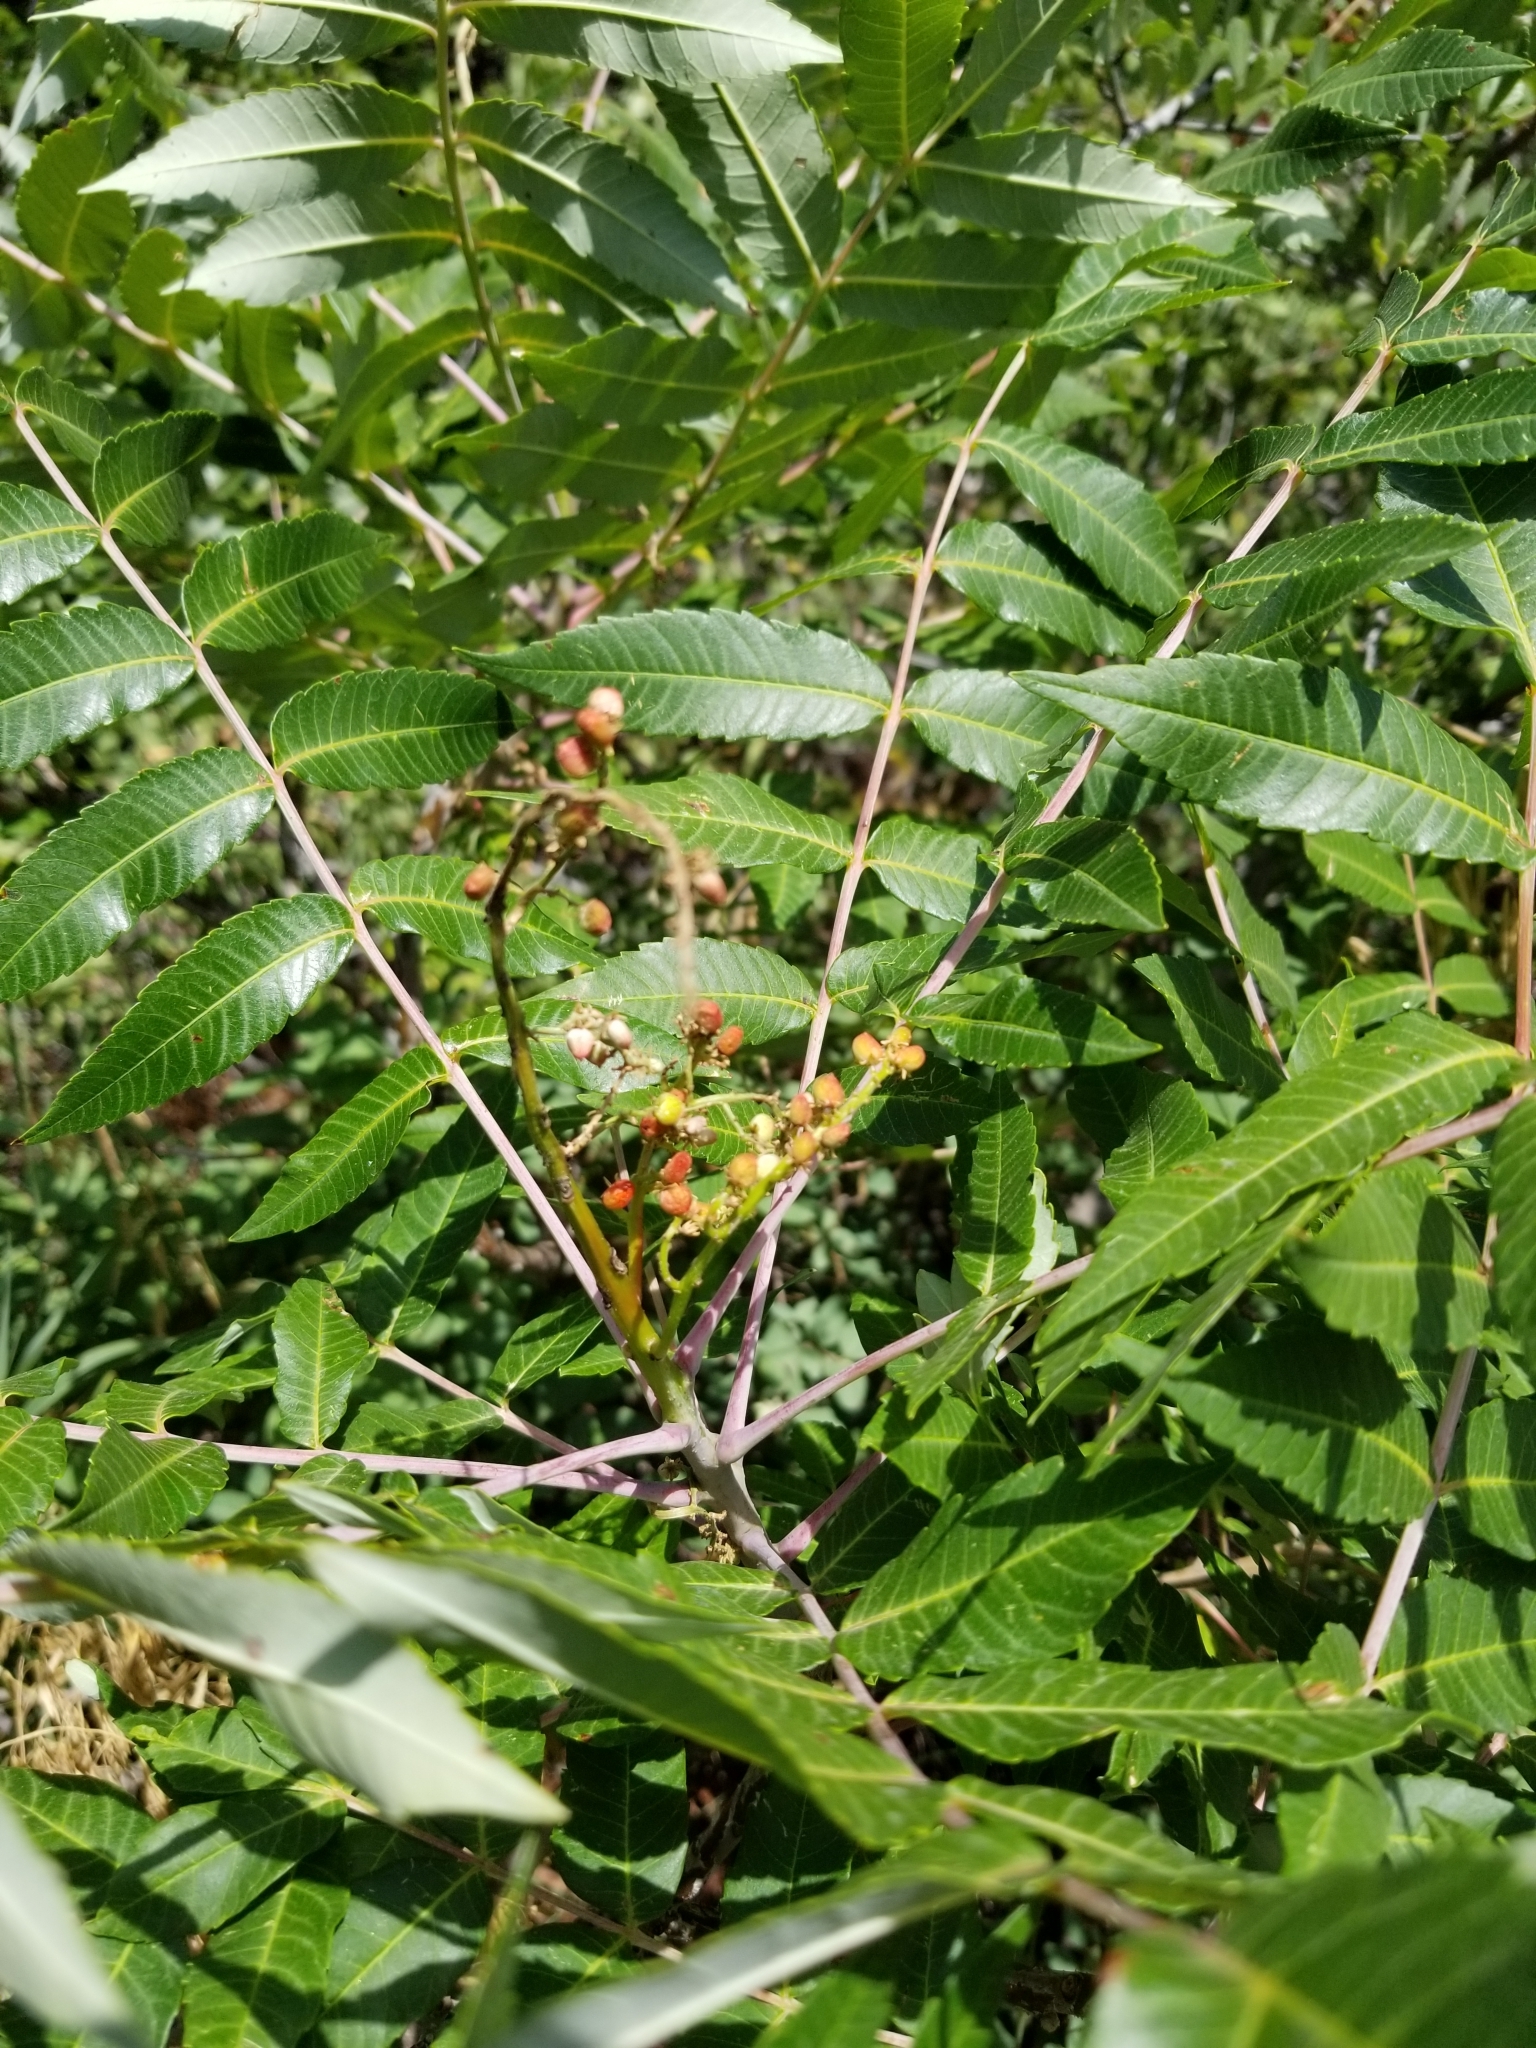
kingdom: Plantae
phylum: Tracheophyta
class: Magnoliopsida
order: Sapindales
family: Anacardiaceae
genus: Rhus
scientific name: Rhus glabra
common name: Scarlet sumac
